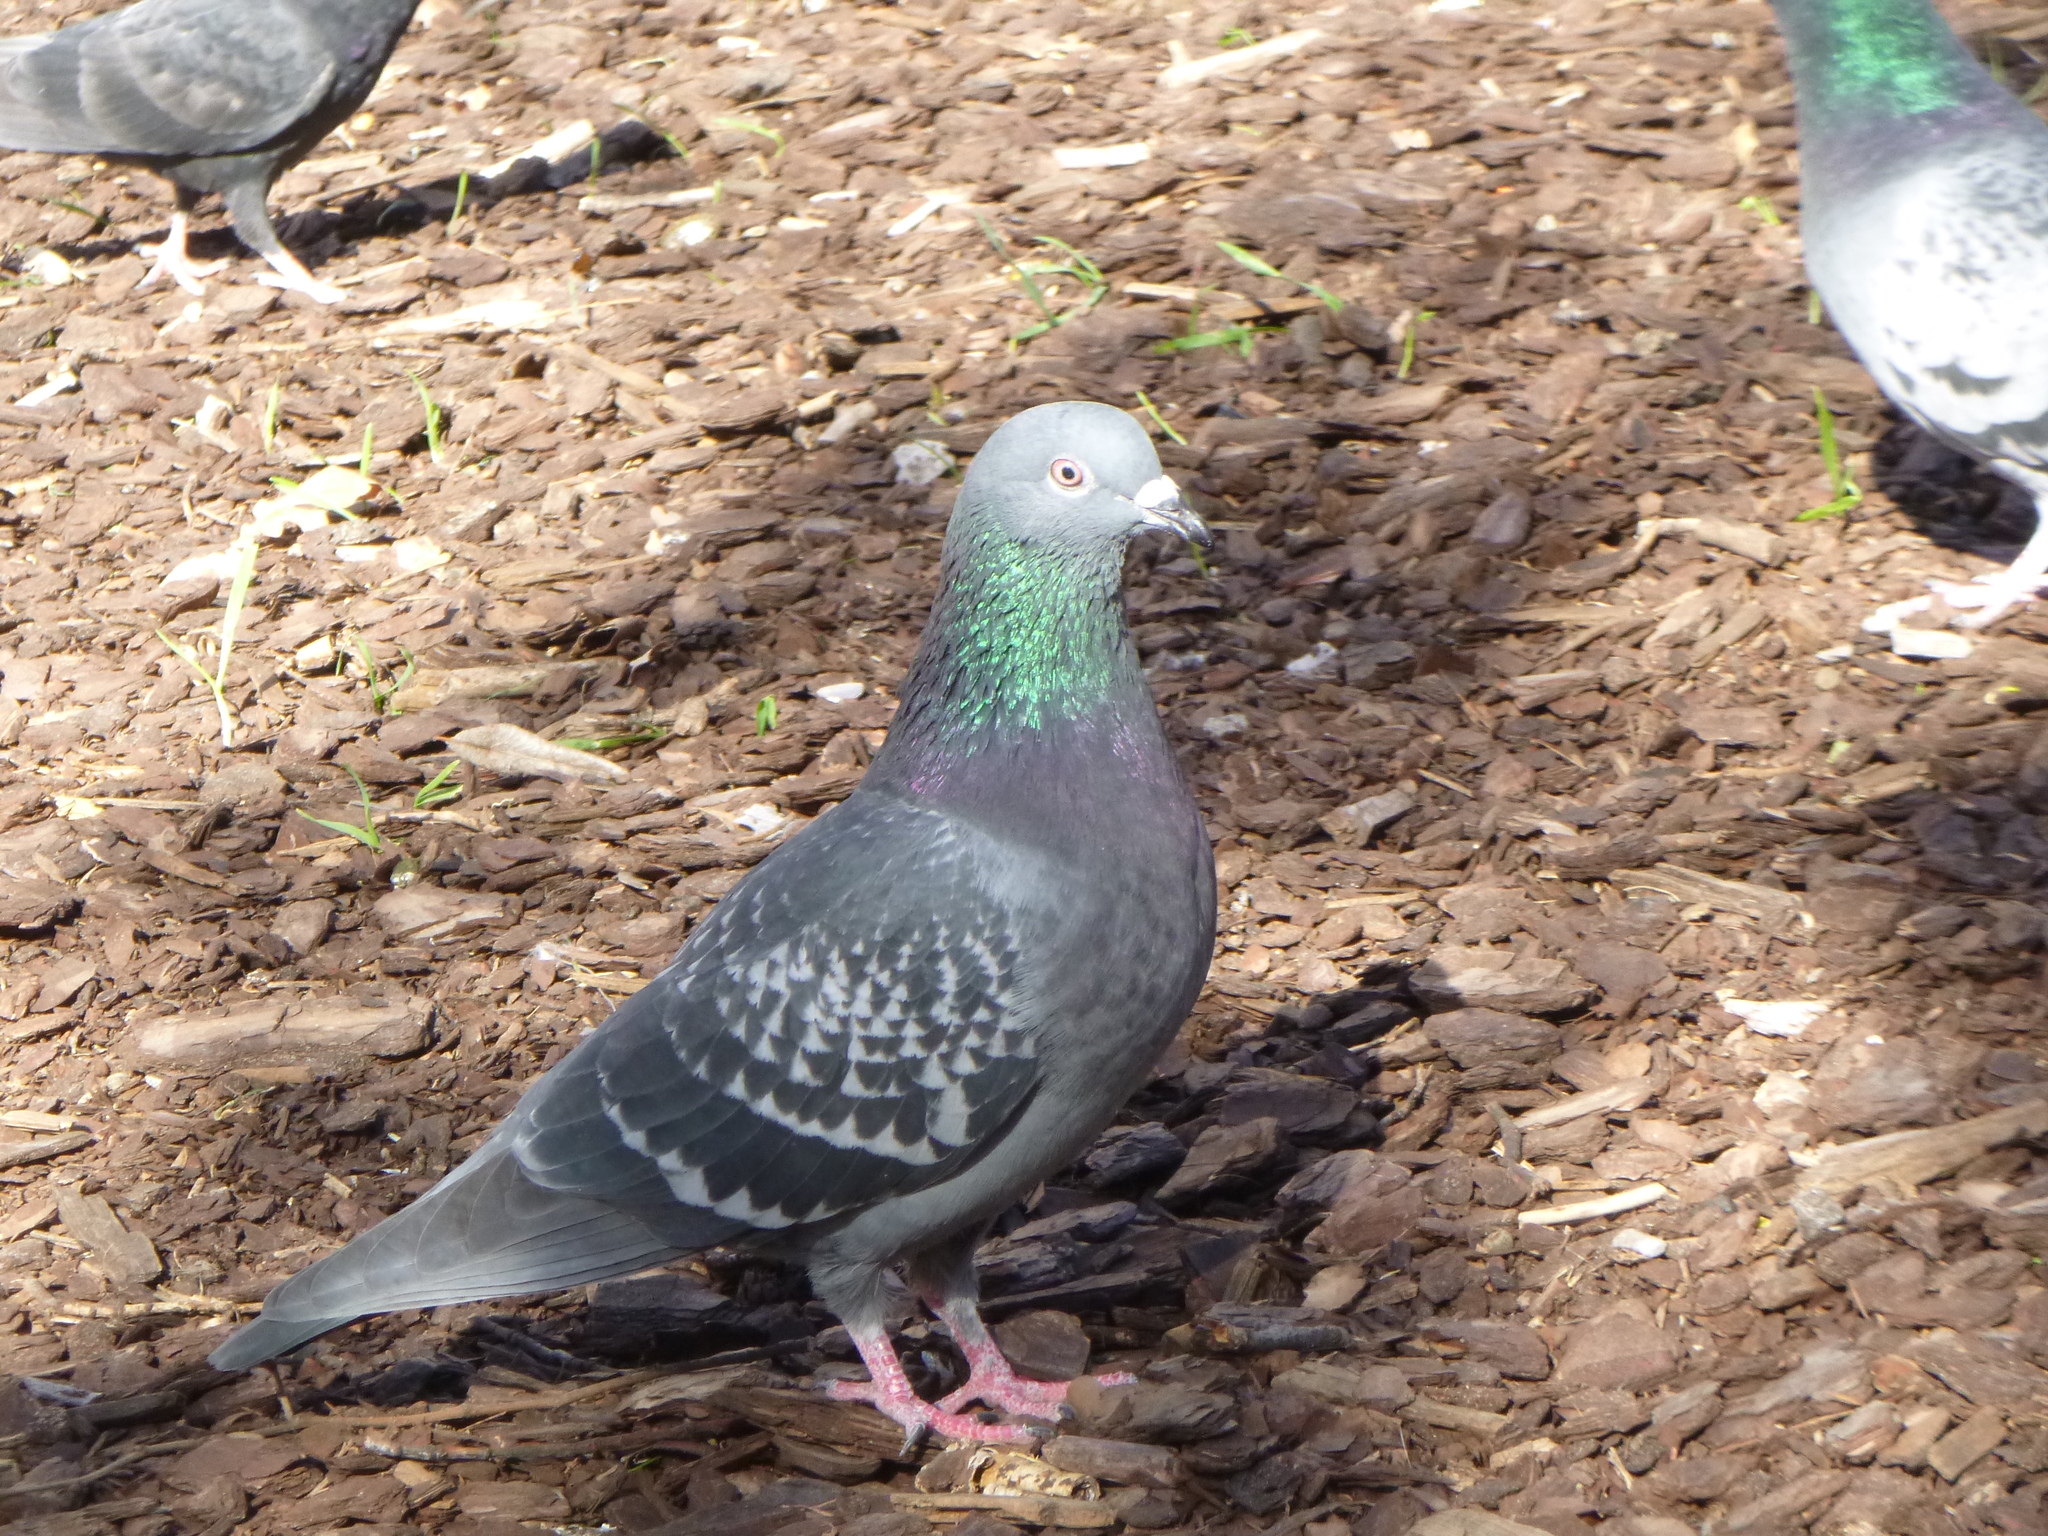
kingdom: Animalia
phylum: Chordata
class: Aves
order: Columbiformes
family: Columbidae
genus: Columba
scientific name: Columba livia
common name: Rock pigeon
